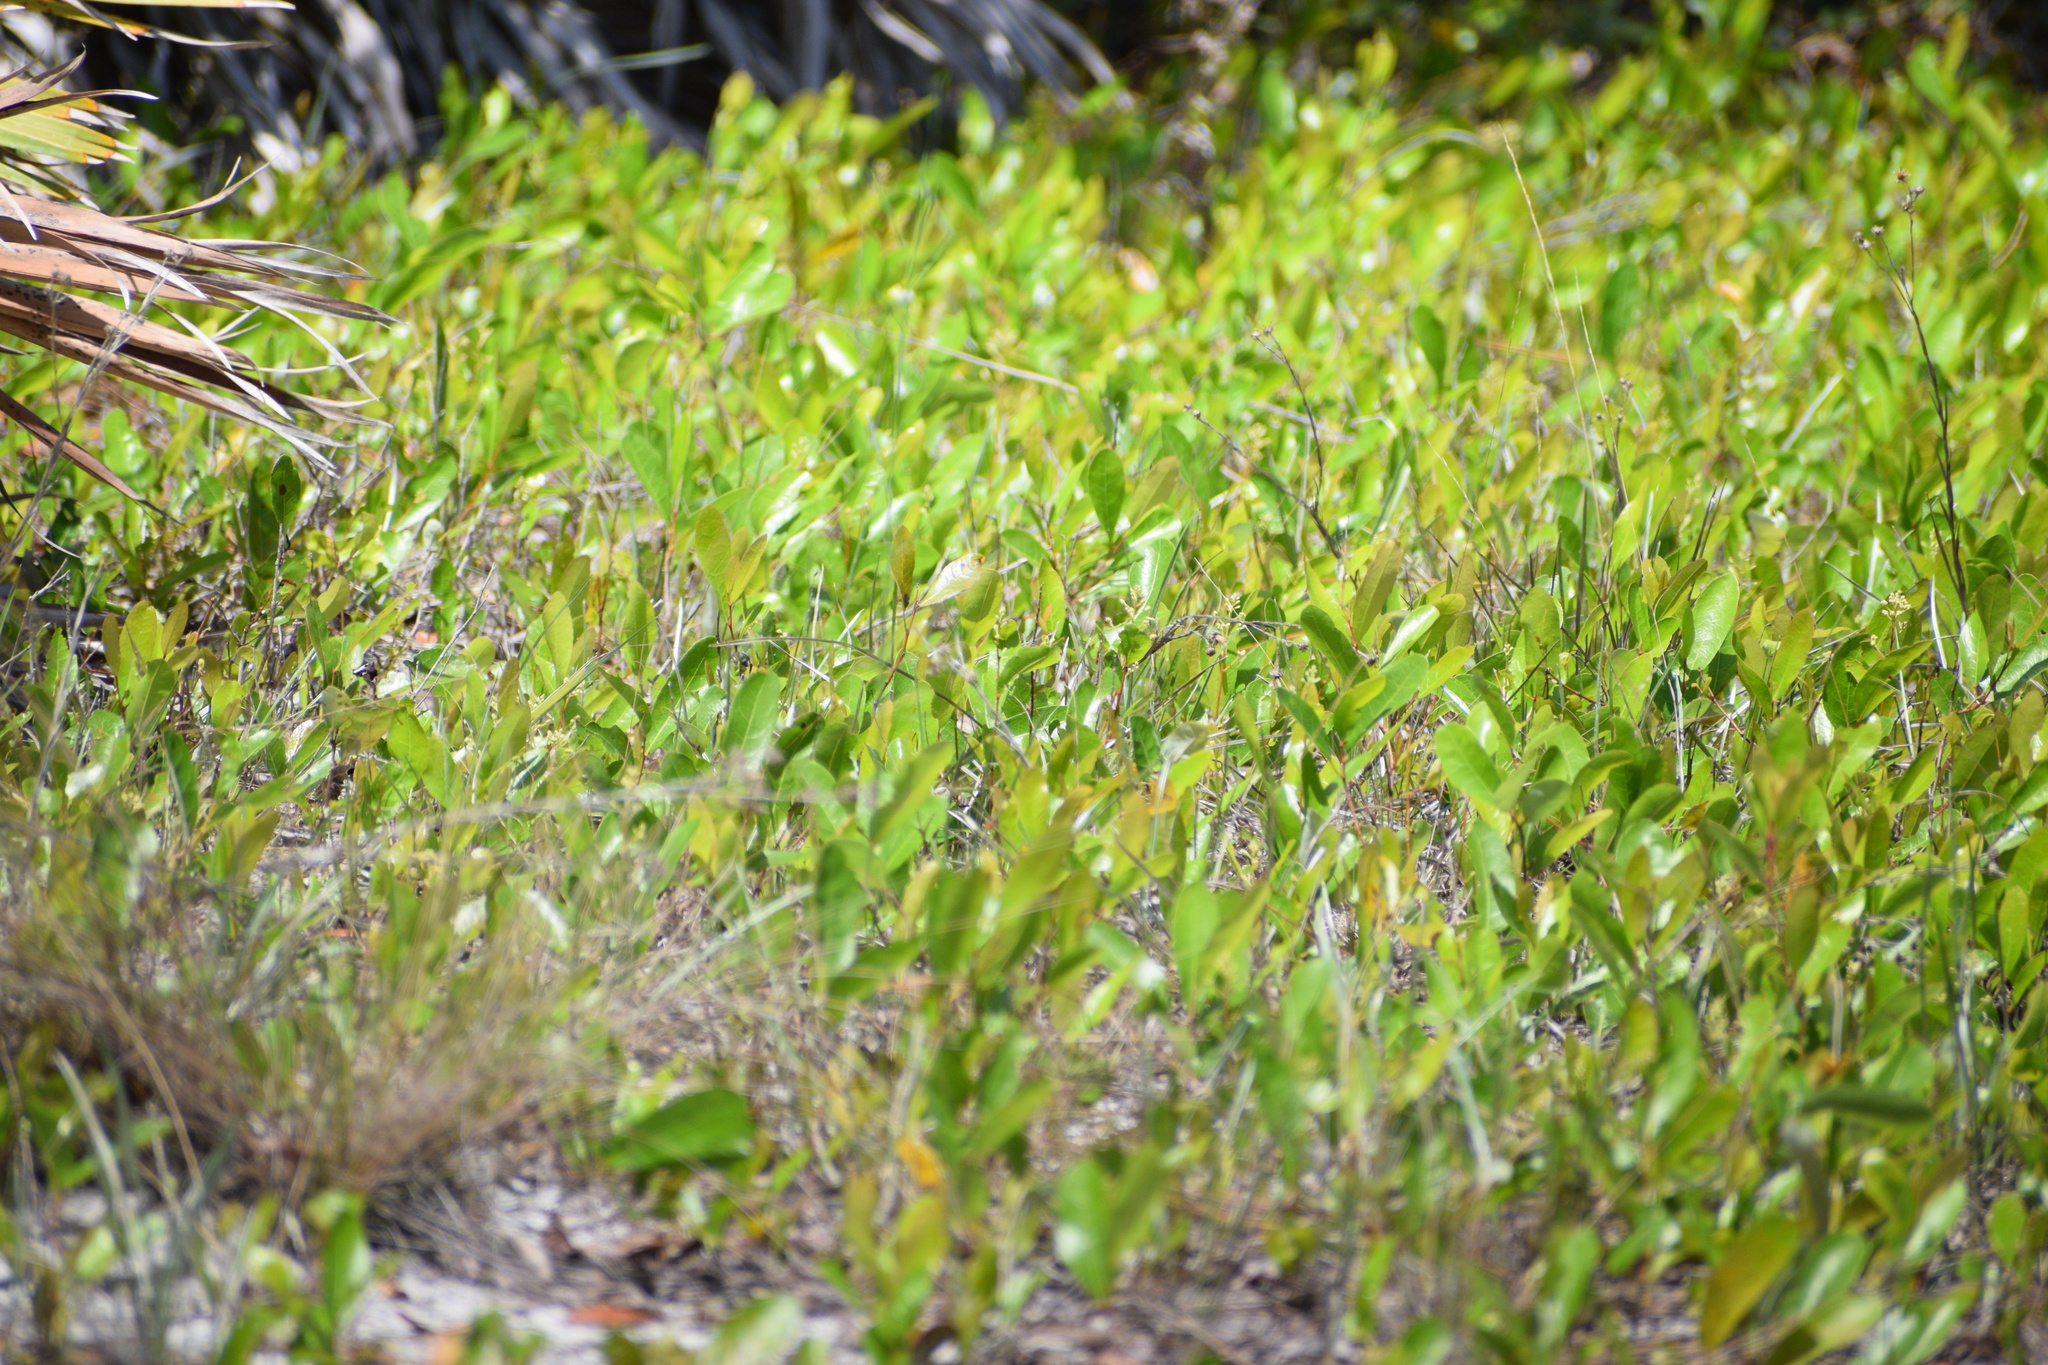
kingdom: Plantae
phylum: Tracheophyta
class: Magnoliopsida
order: Malpighiales
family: Chrysobalanaceae
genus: Geobalanus
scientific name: Geobalanus oblongifolius
